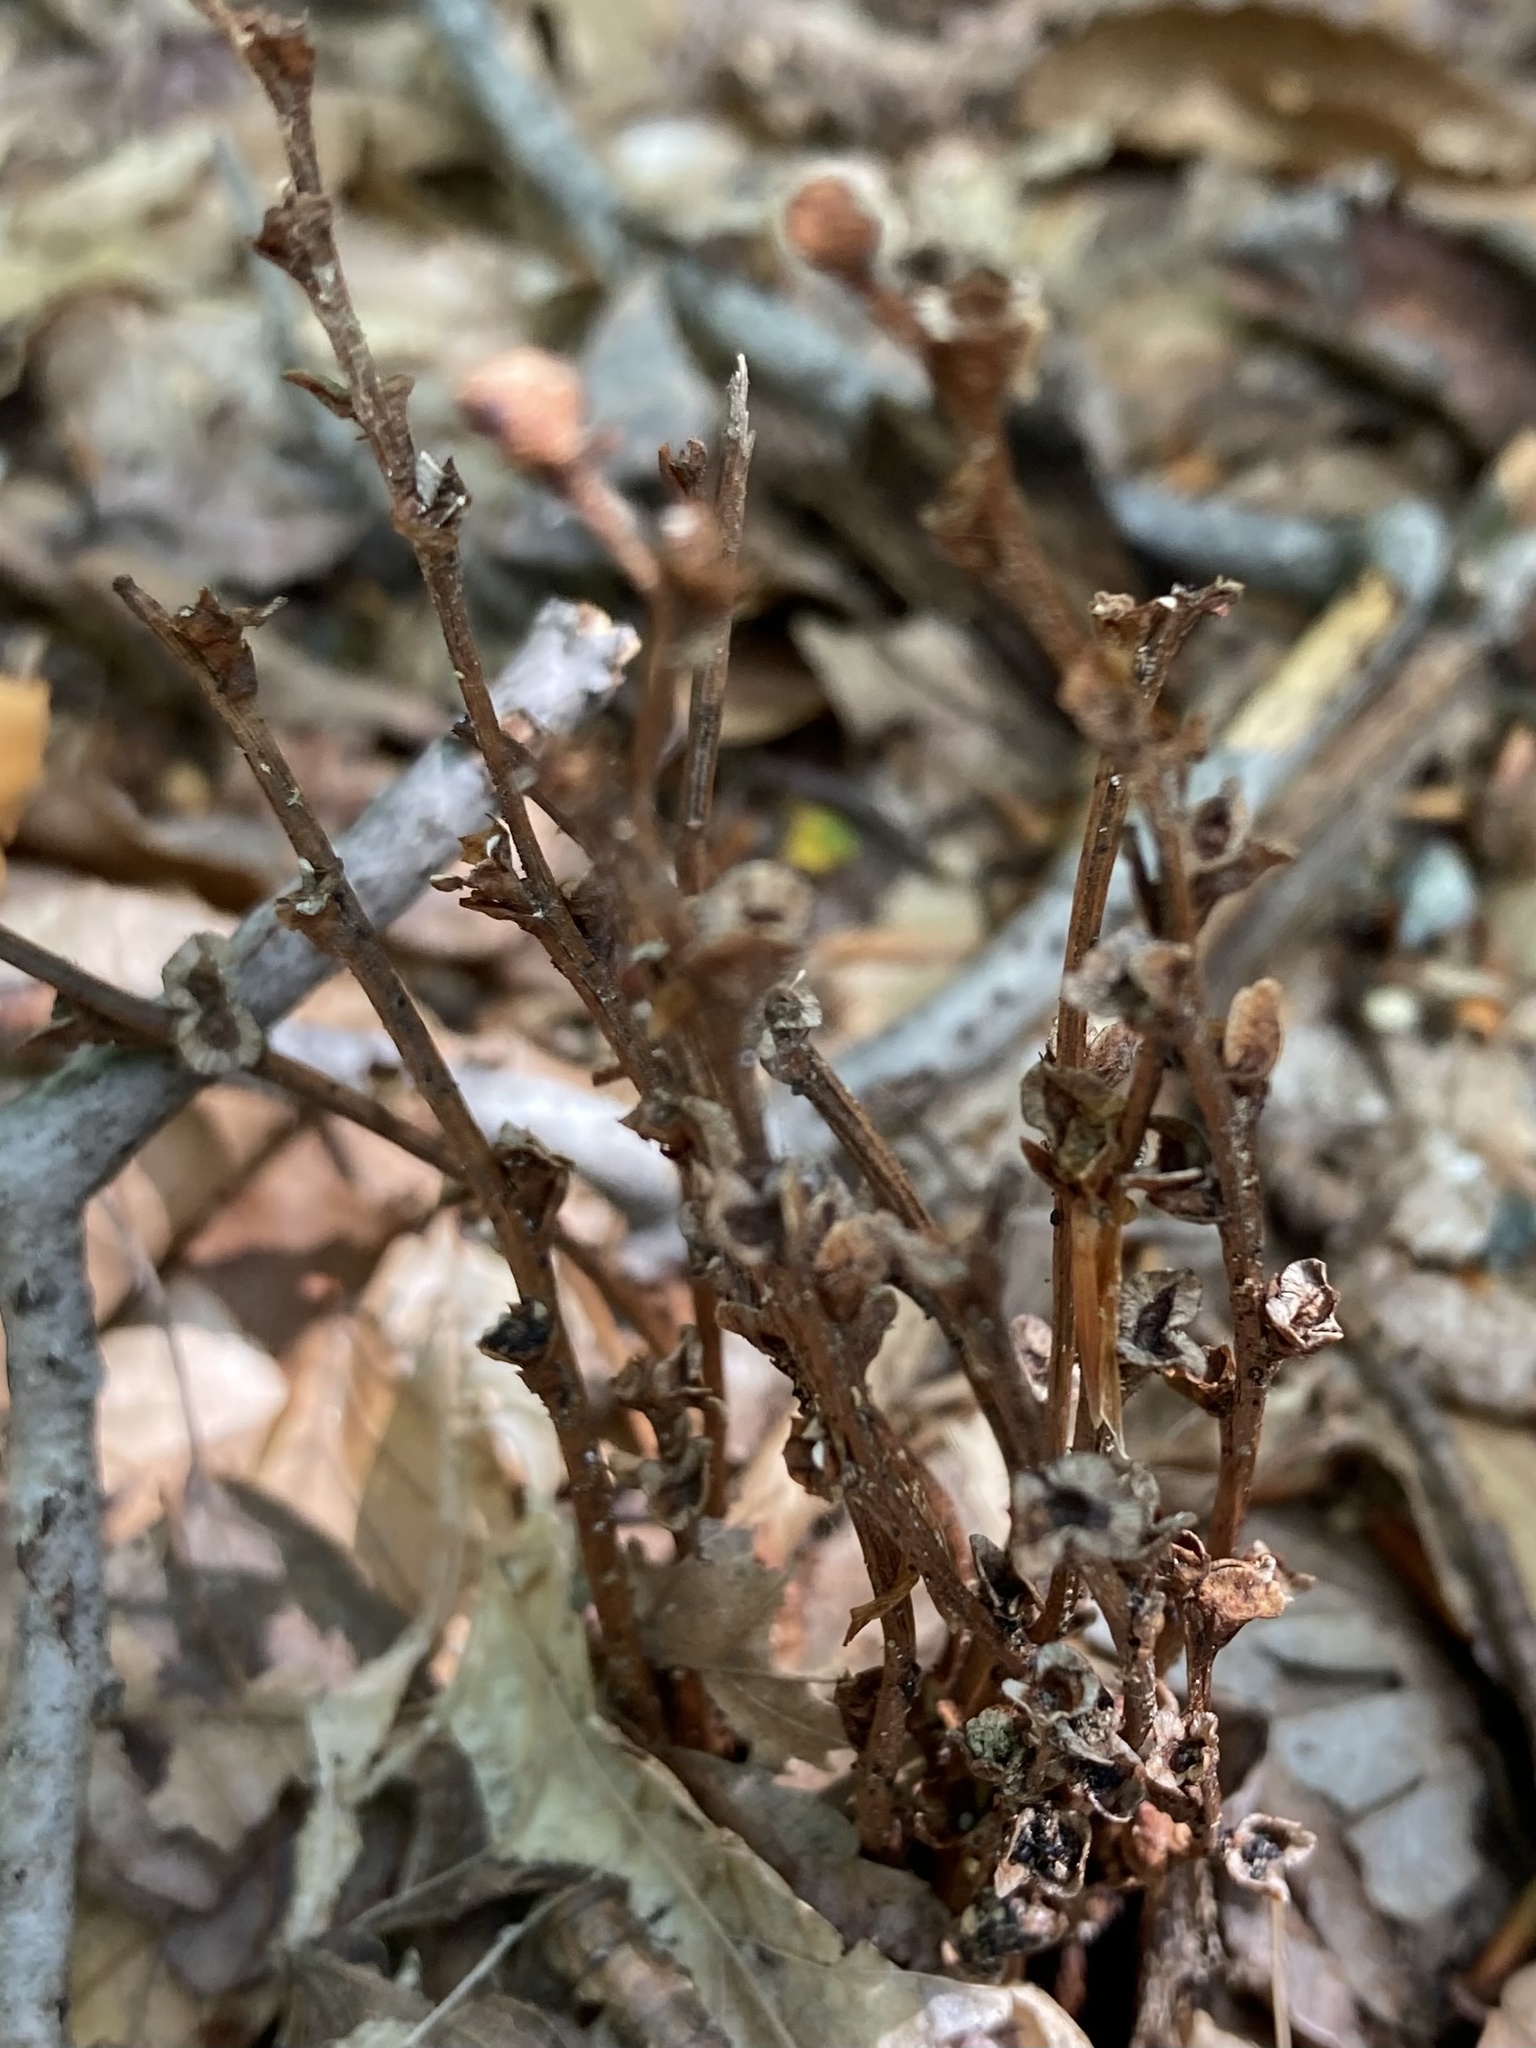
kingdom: Plantae
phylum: Tracheophyta
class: Magnoliopsida
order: Lamiales
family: Orobanchaceae
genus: Epifagus
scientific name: Epifagus virginiana
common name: Beechdrops
